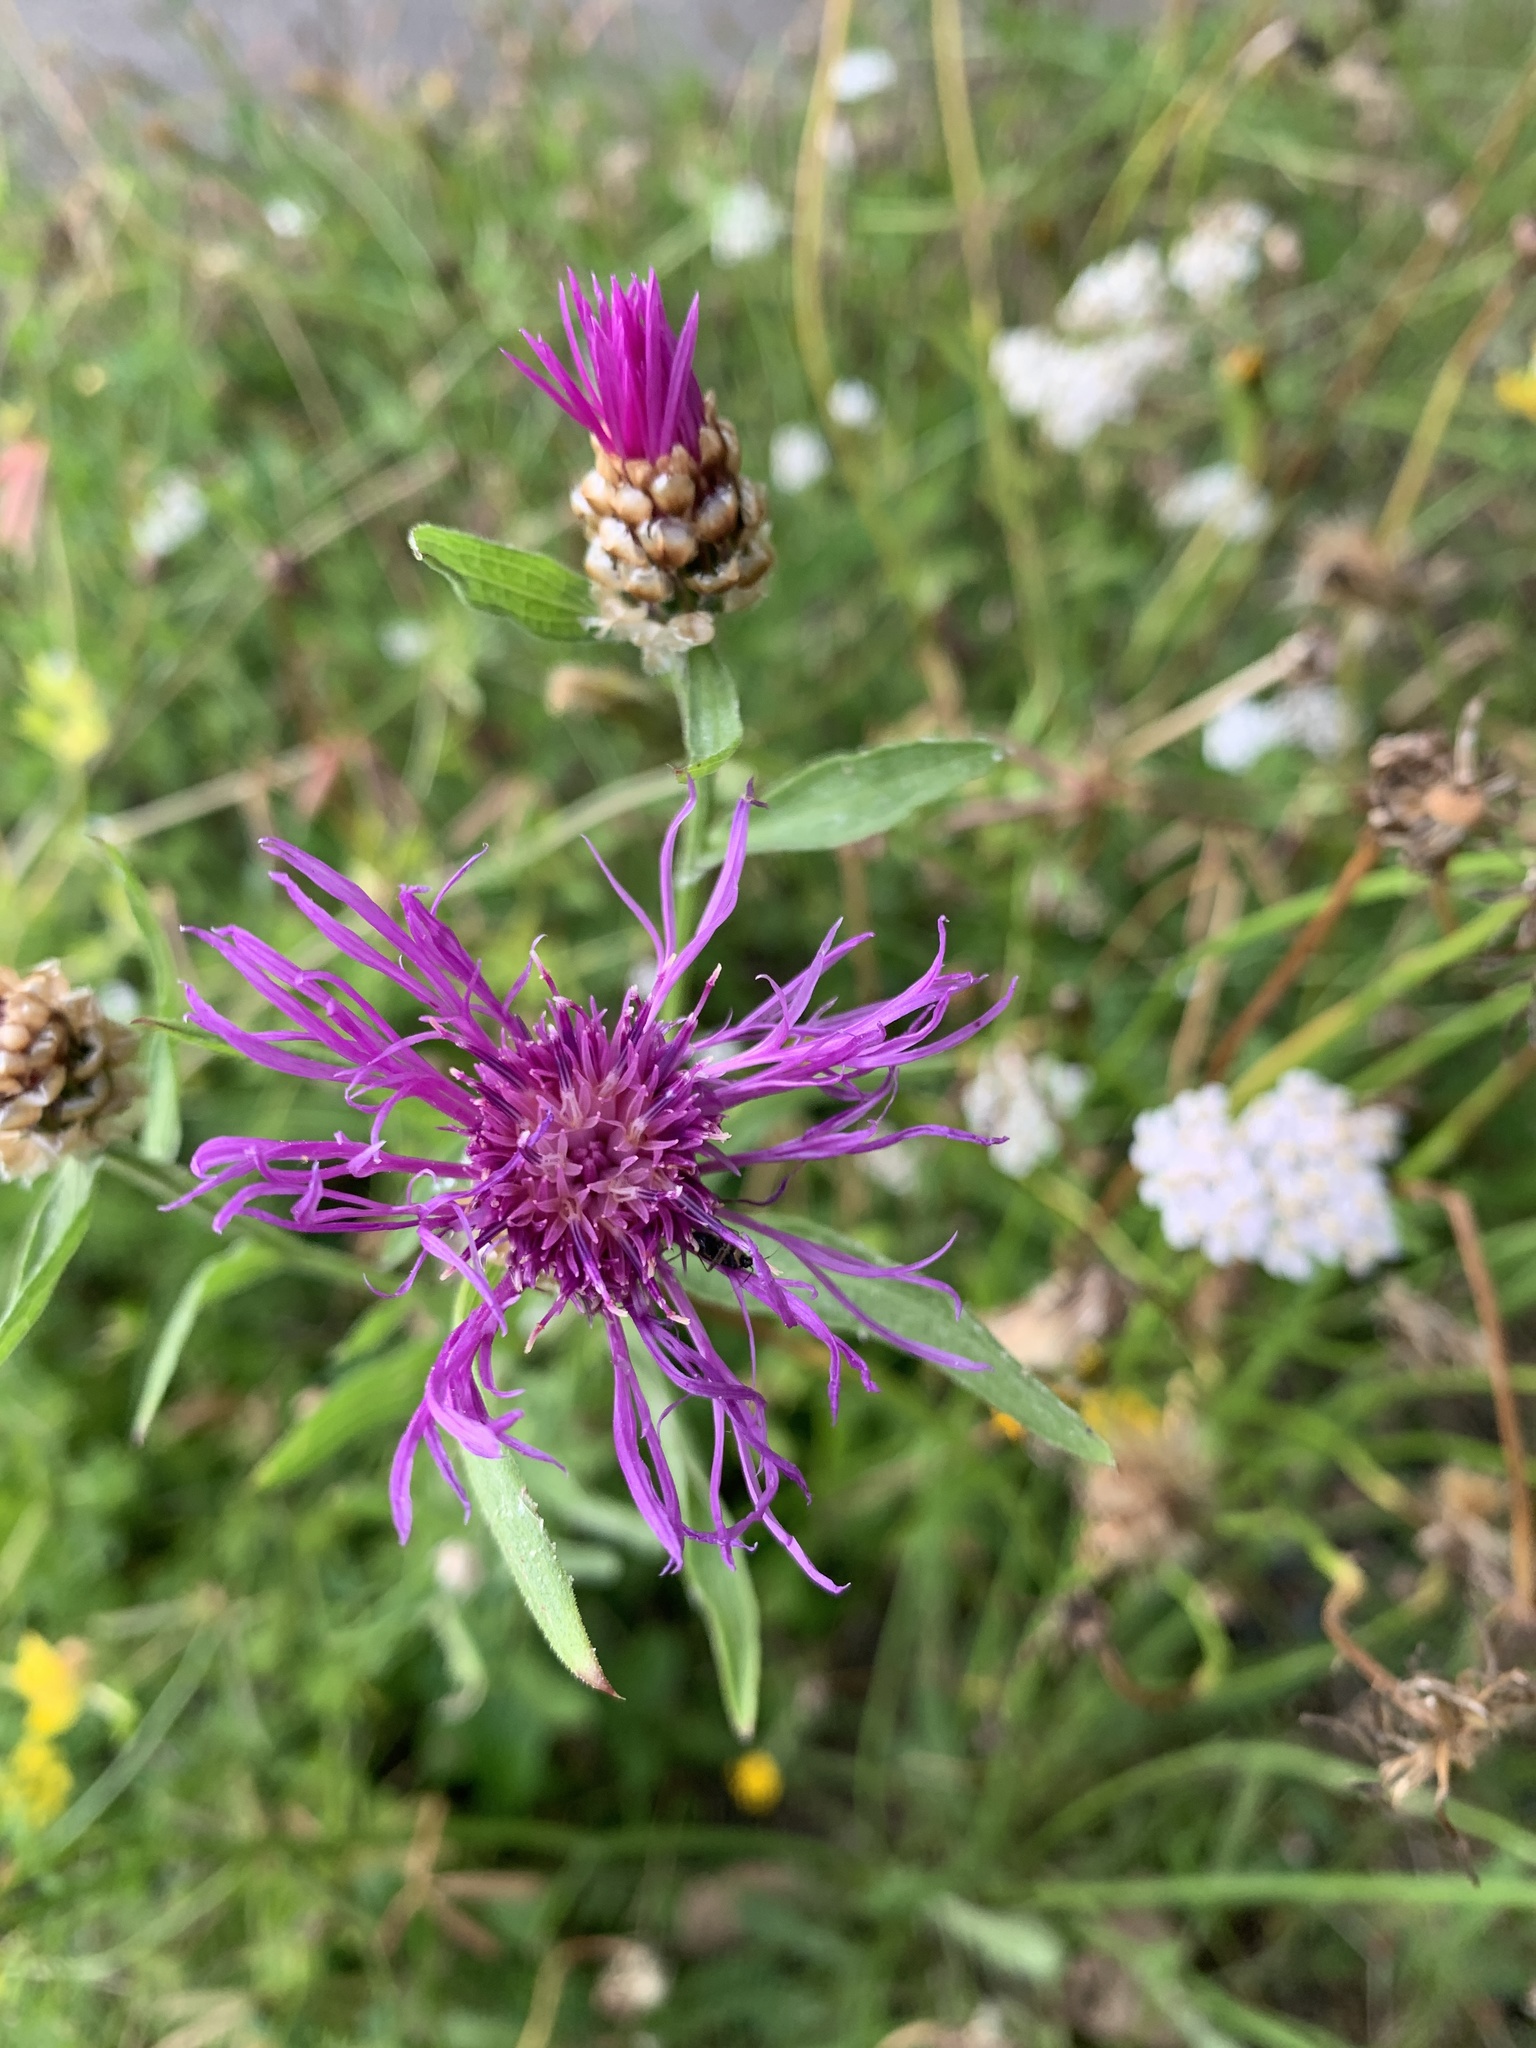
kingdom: Plantae
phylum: Tracheophyta
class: Magnoliopsida
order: Asterales
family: Asteraceae
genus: Centaurea
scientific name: Centaurea jacea
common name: Brown knapweed
